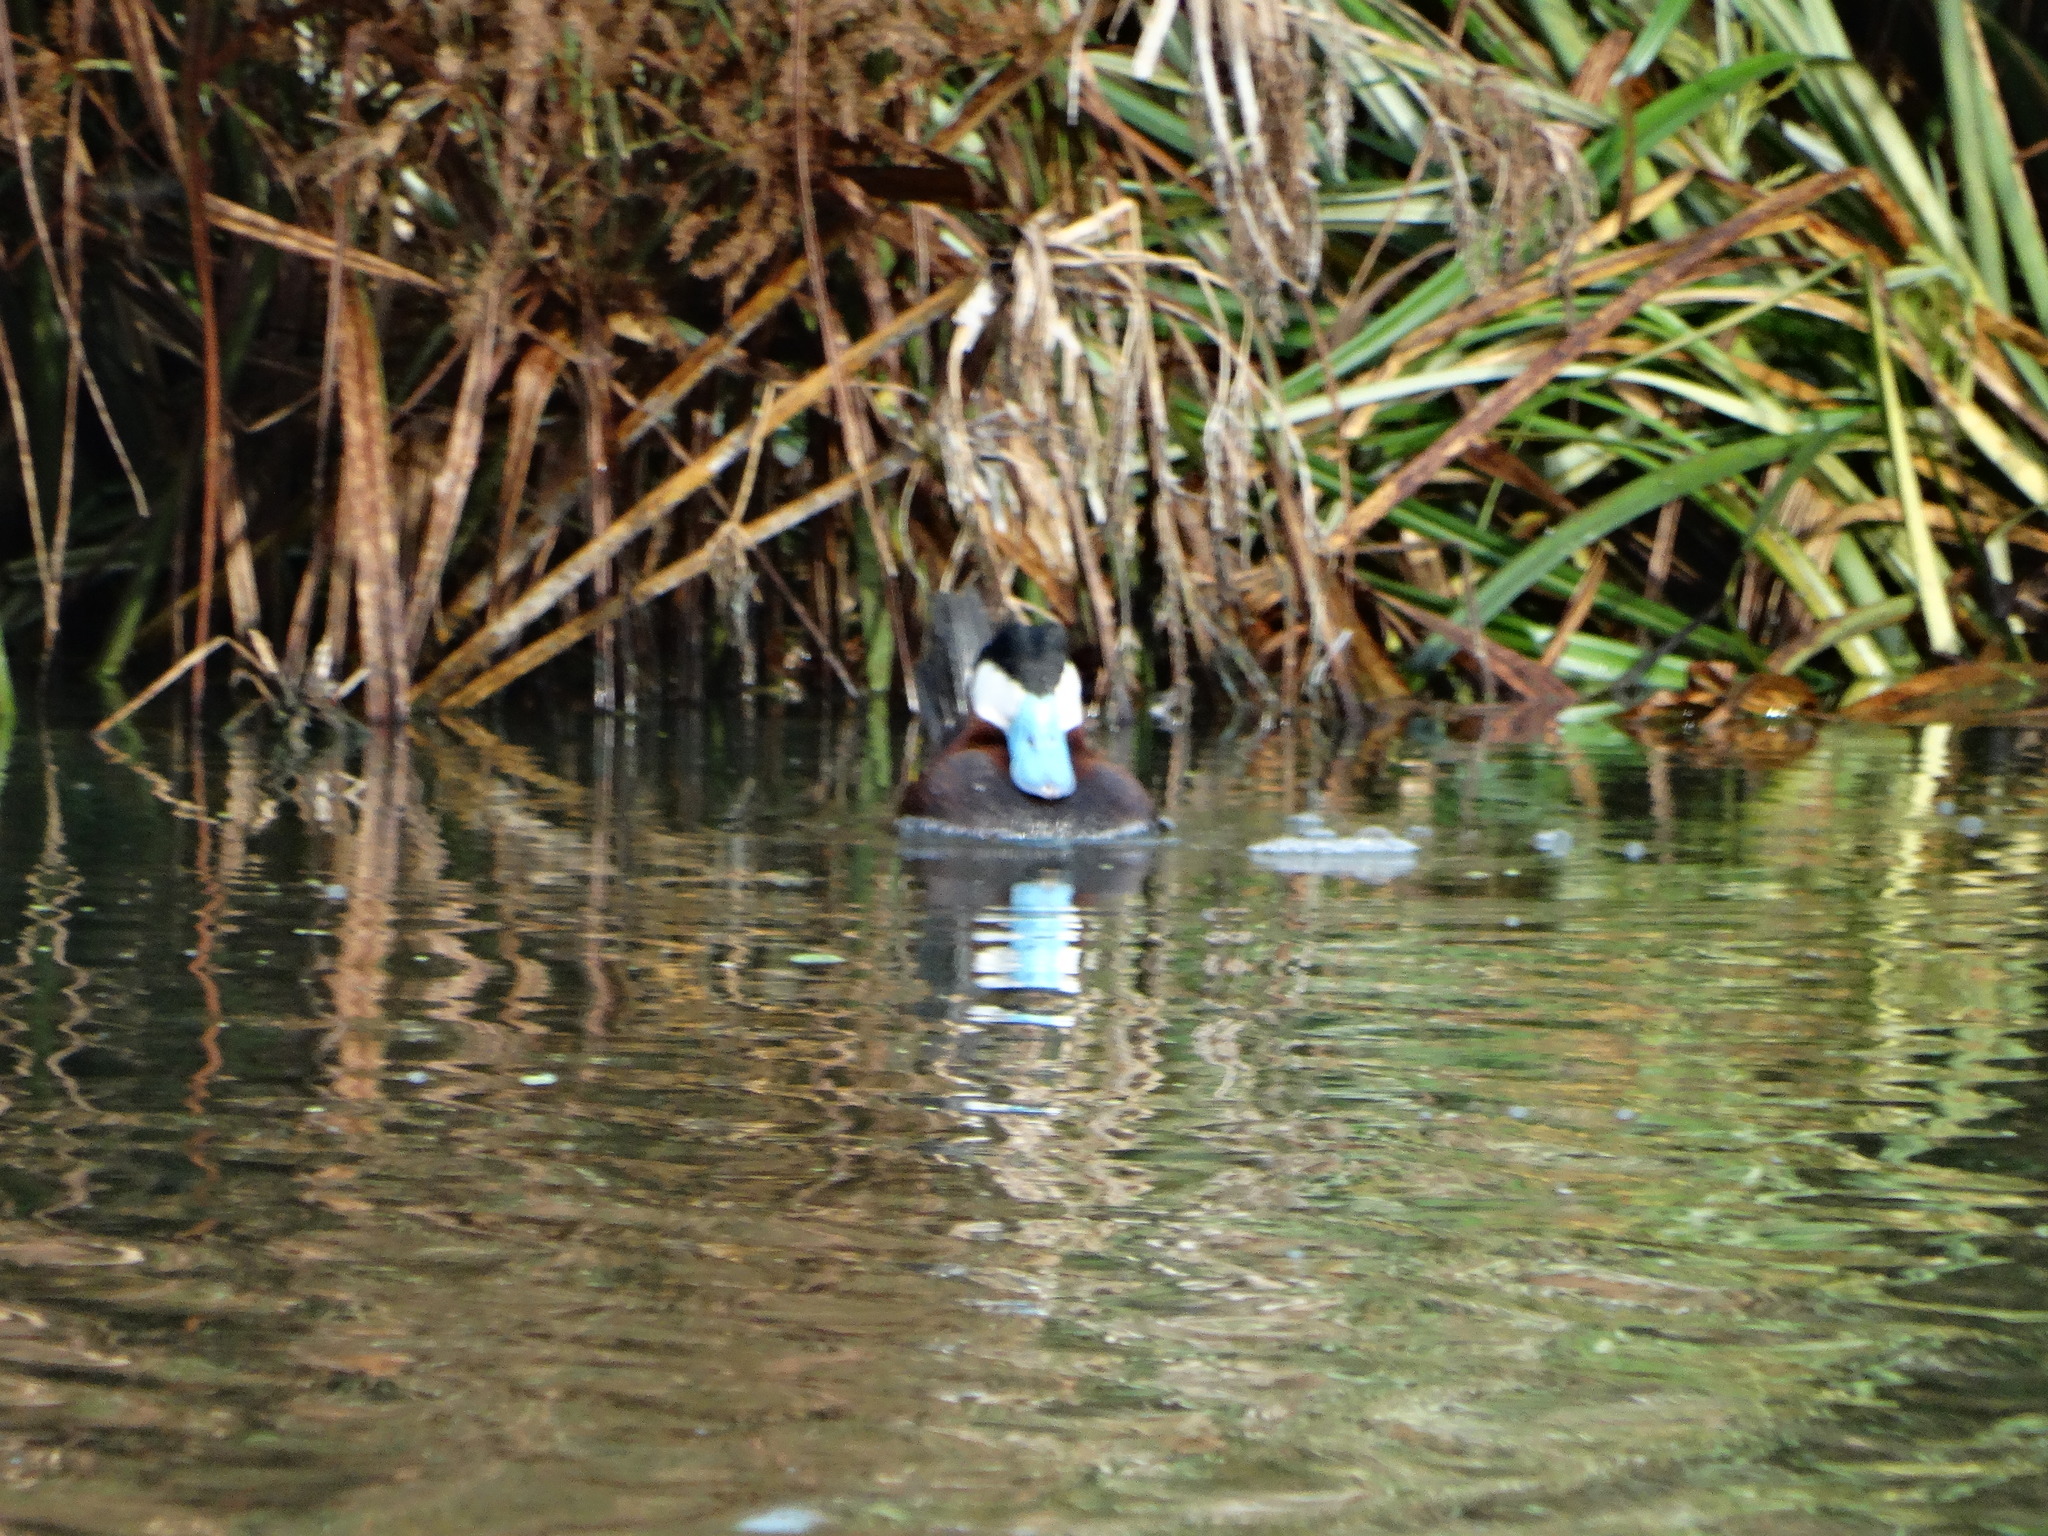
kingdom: Animalia
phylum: Chordata
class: Aves
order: Anseriformes
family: Anatidae
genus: Oxyura
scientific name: Oxyura jamaicensis
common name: Ruddy duck
